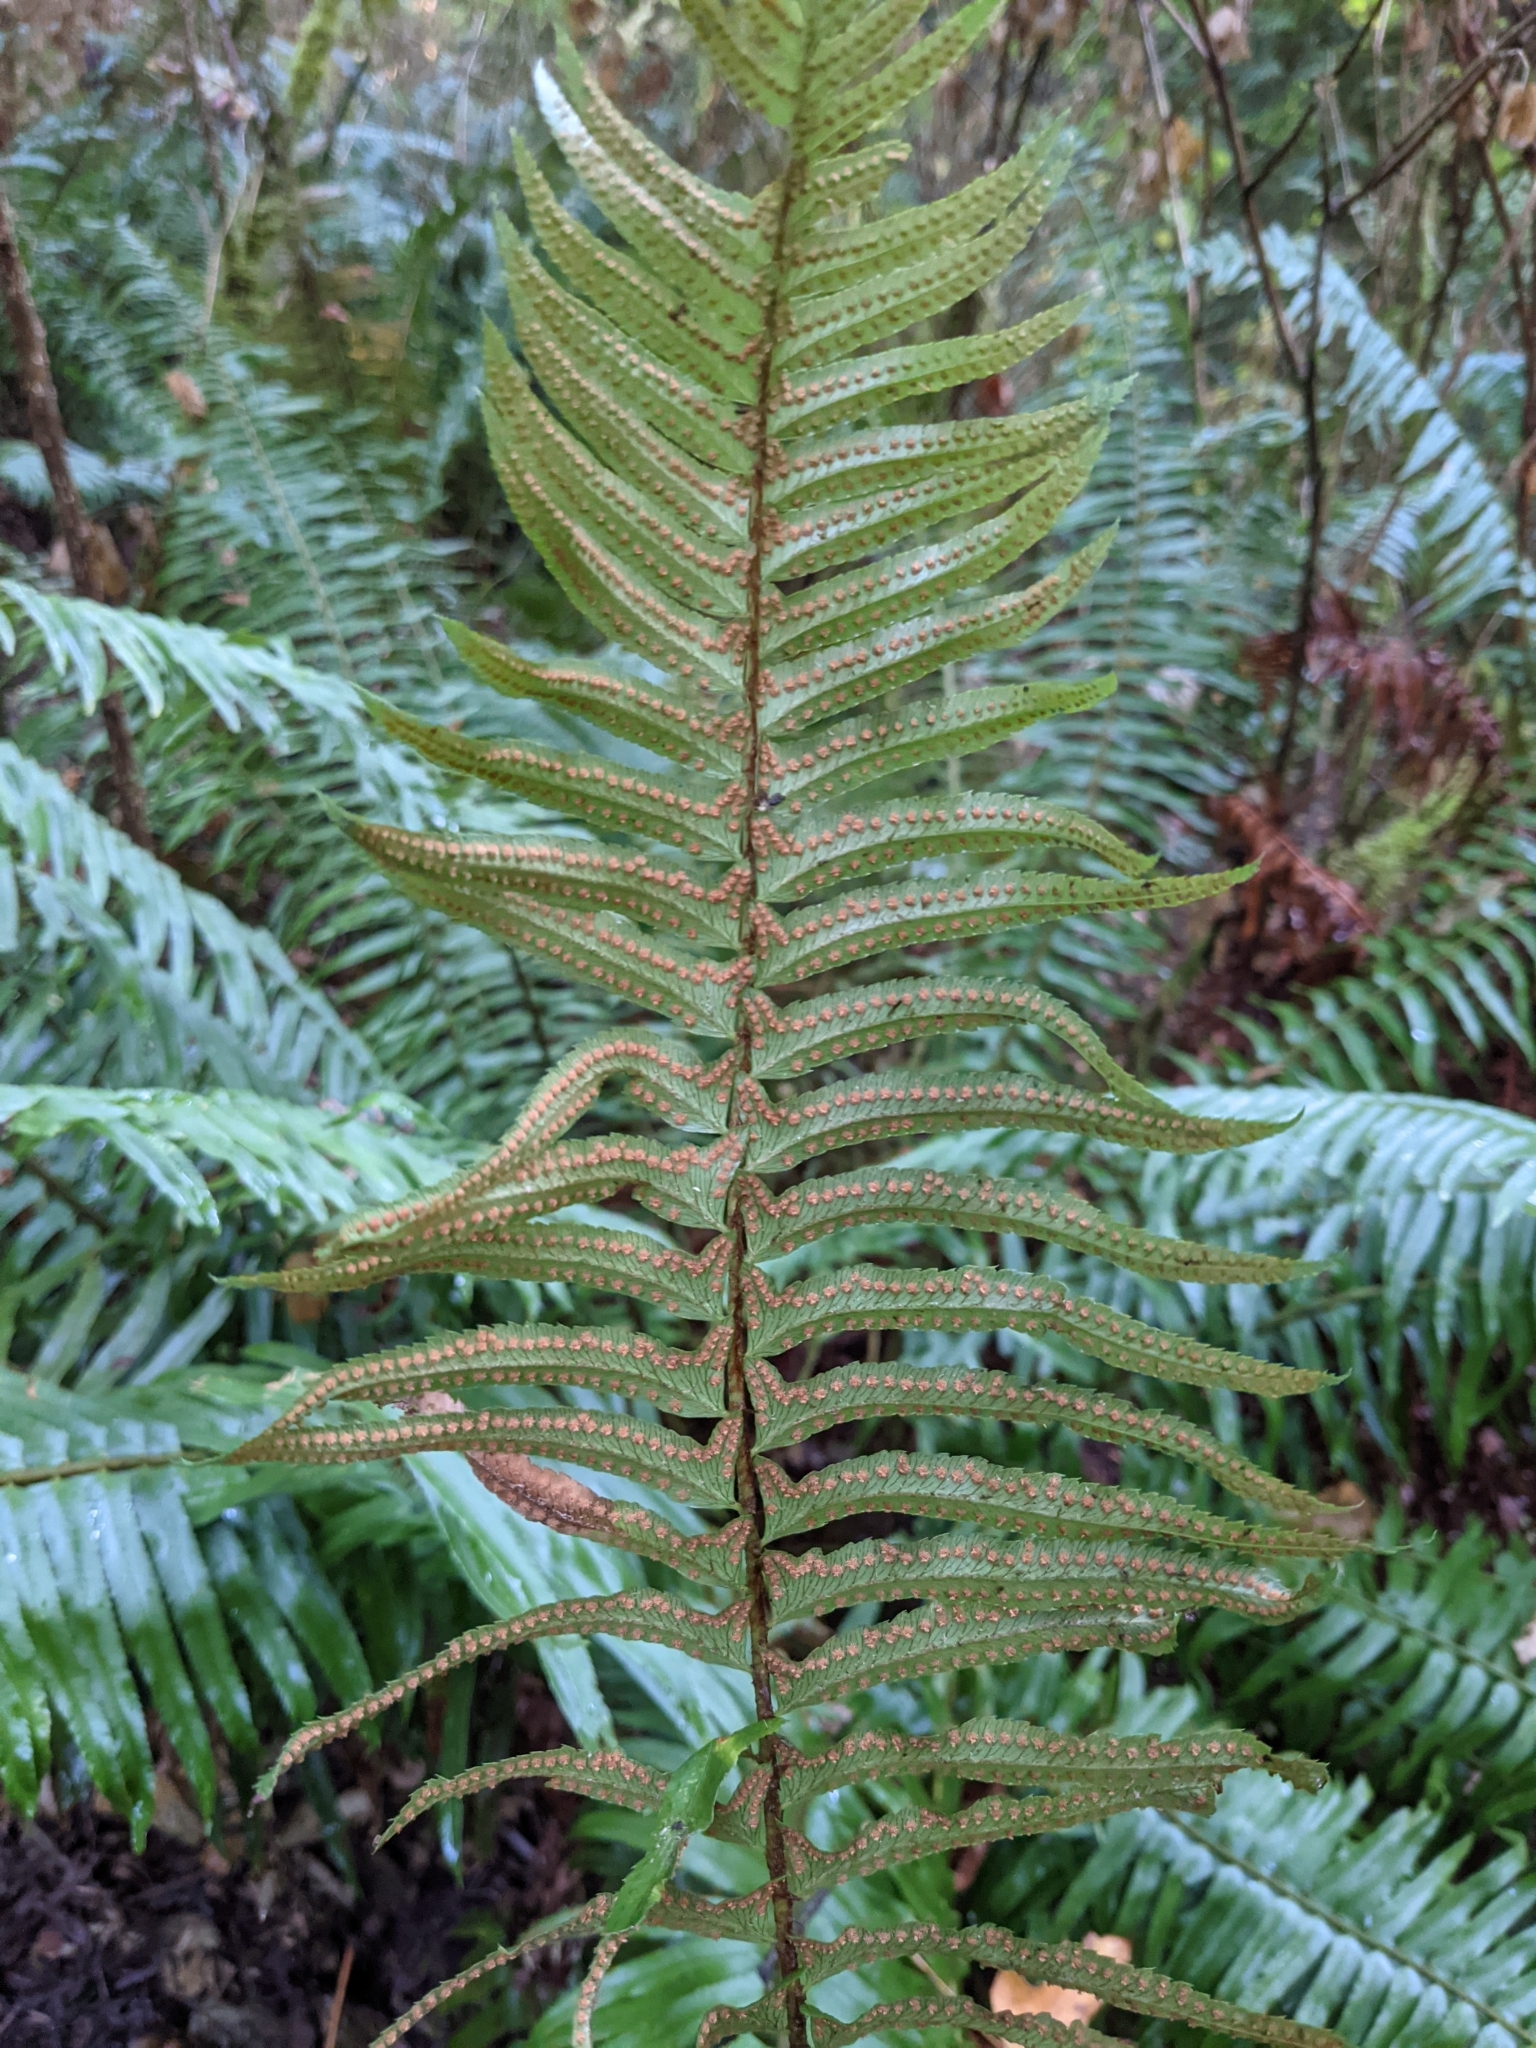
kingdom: Plantae
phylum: Tracheophyta
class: Polypodiopsida
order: Polypodiales
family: Dryopteridaceae
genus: Polystichum
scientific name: Polystichum munitum
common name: Western sword-fern
